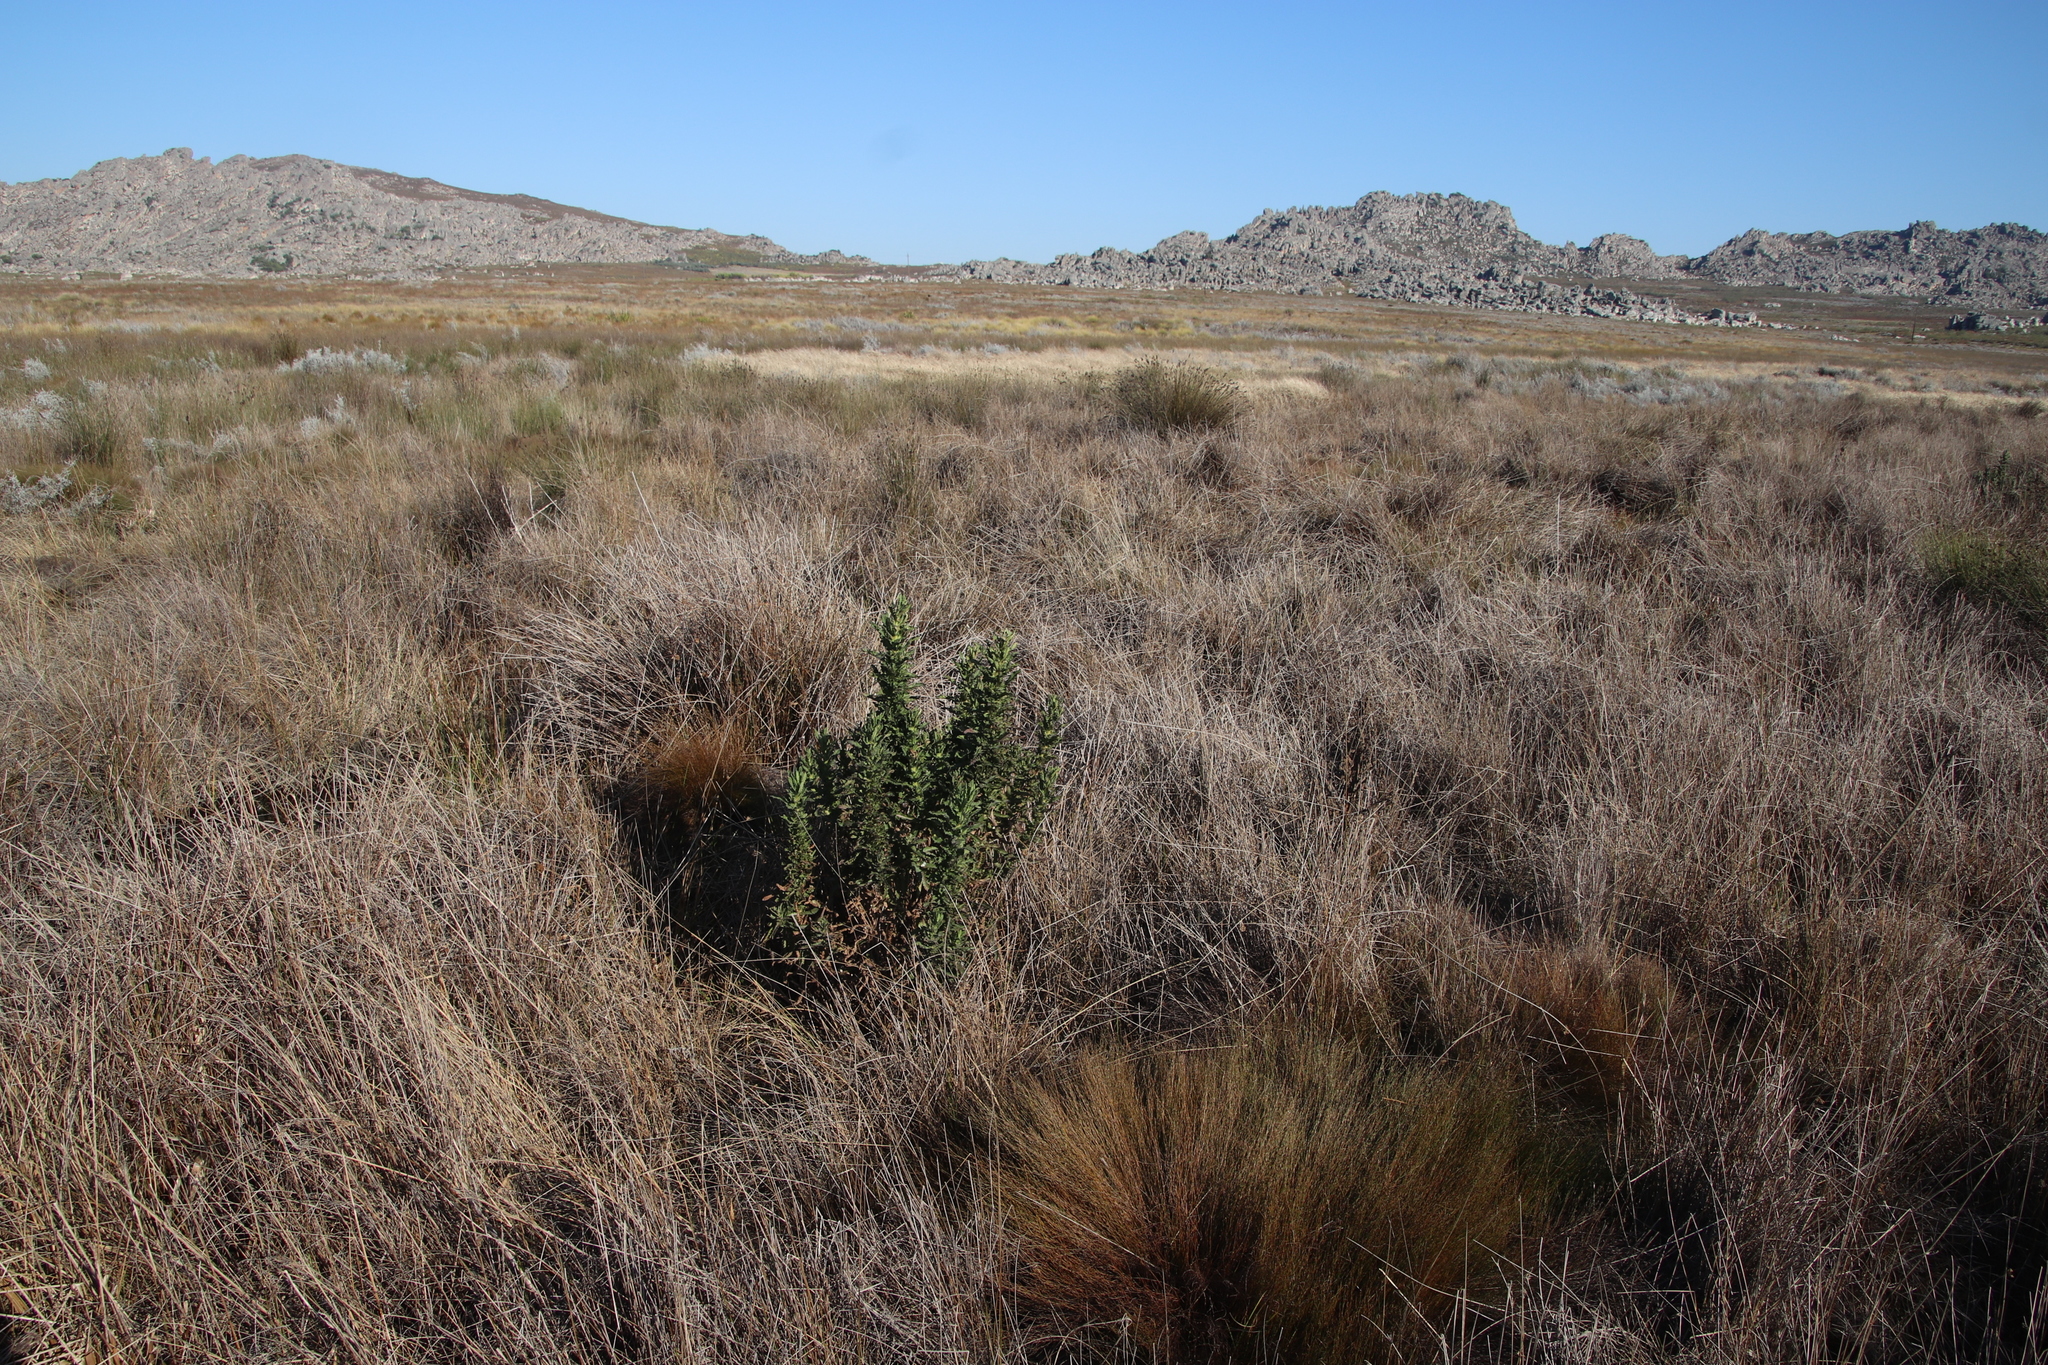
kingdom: Plantae
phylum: Tracheophyta
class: Magnoliopsida
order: Asterales
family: Asteraceae
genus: Senecio
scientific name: Senecio rigidus
